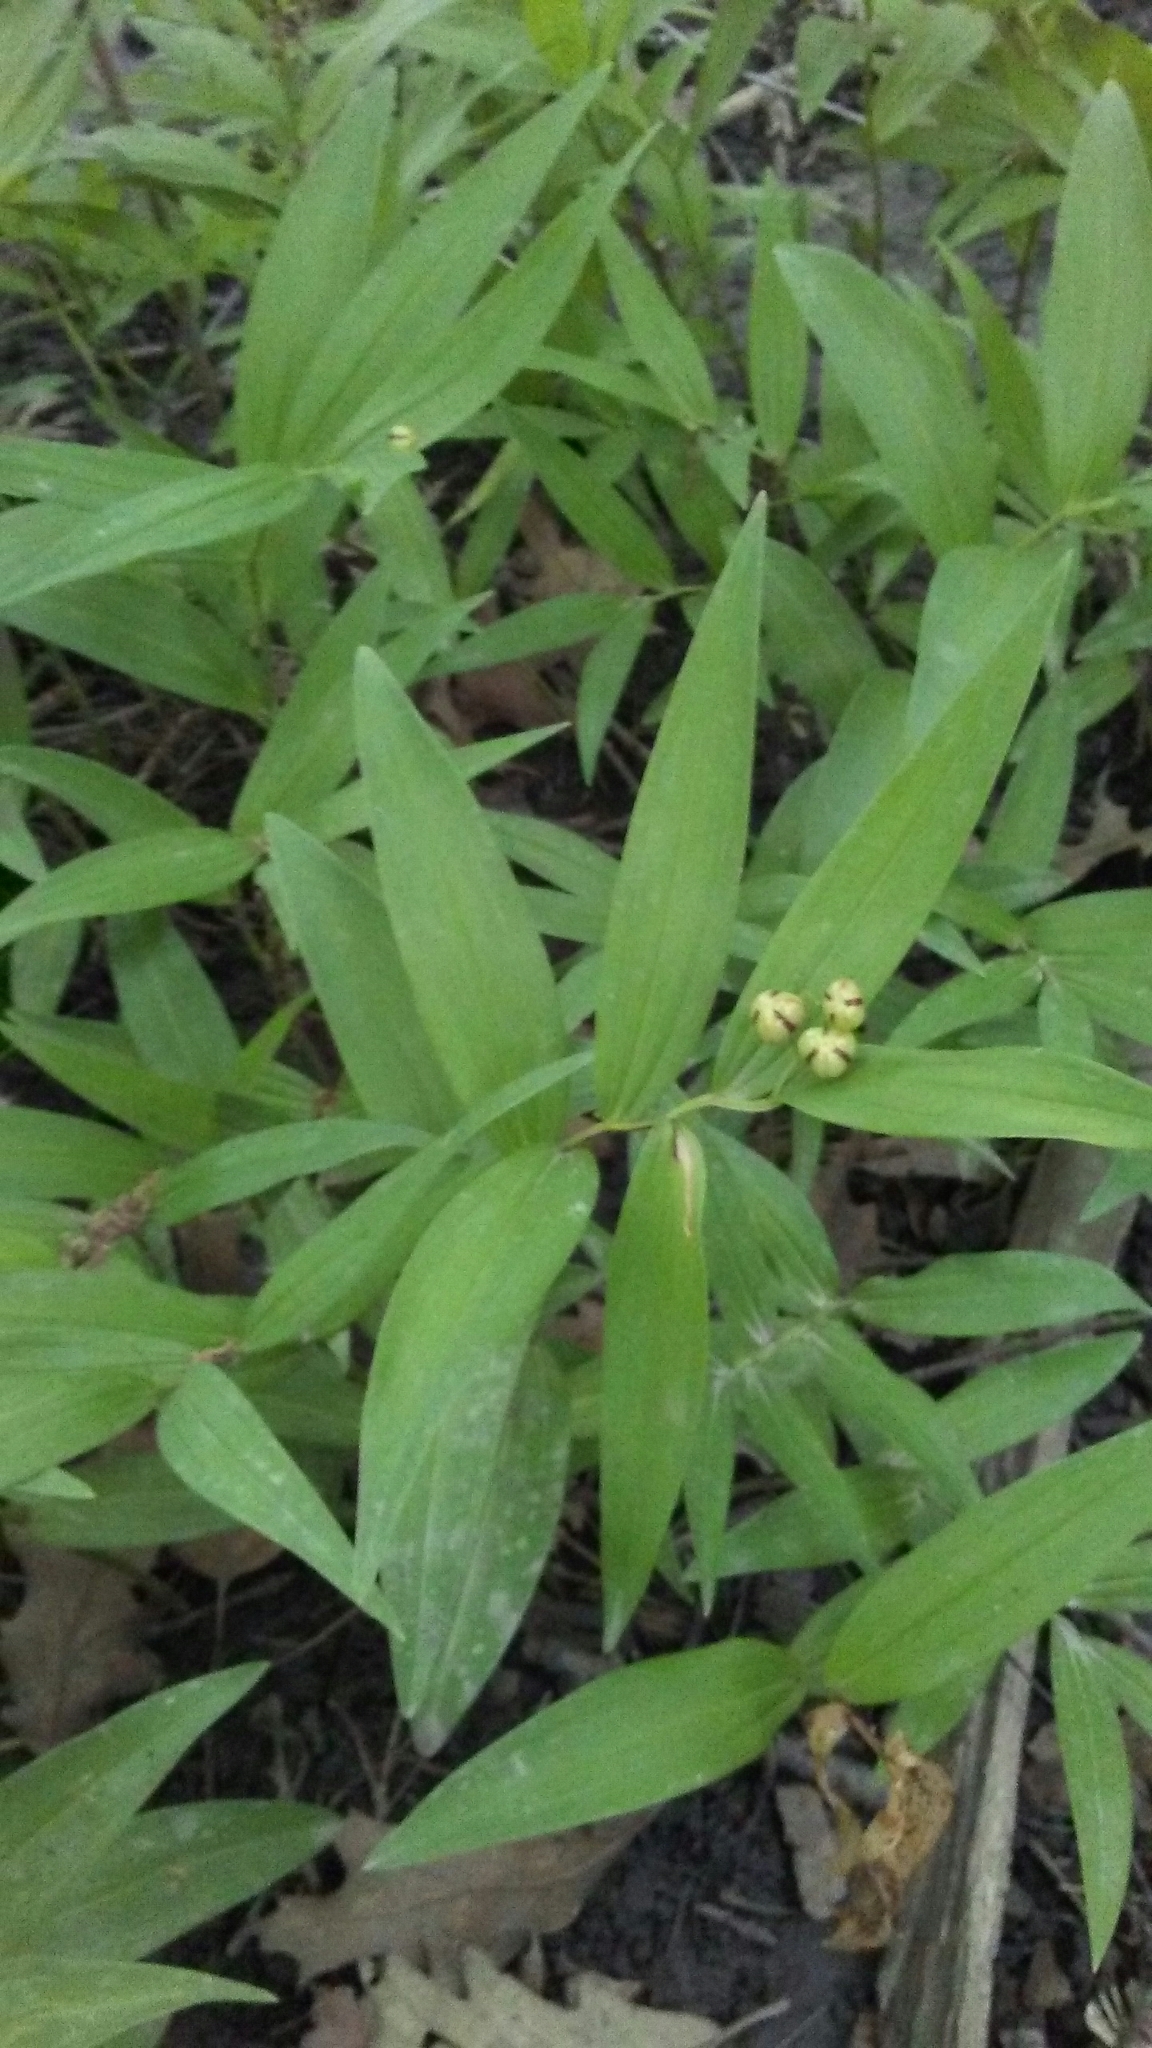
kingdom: Plantae
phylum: Tracheophyta
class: Liliopsida
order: Asparagales
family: Asparagaceae
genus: Maianthemum
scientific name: Maianthemum stellatum
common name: Little false solomon's seal
